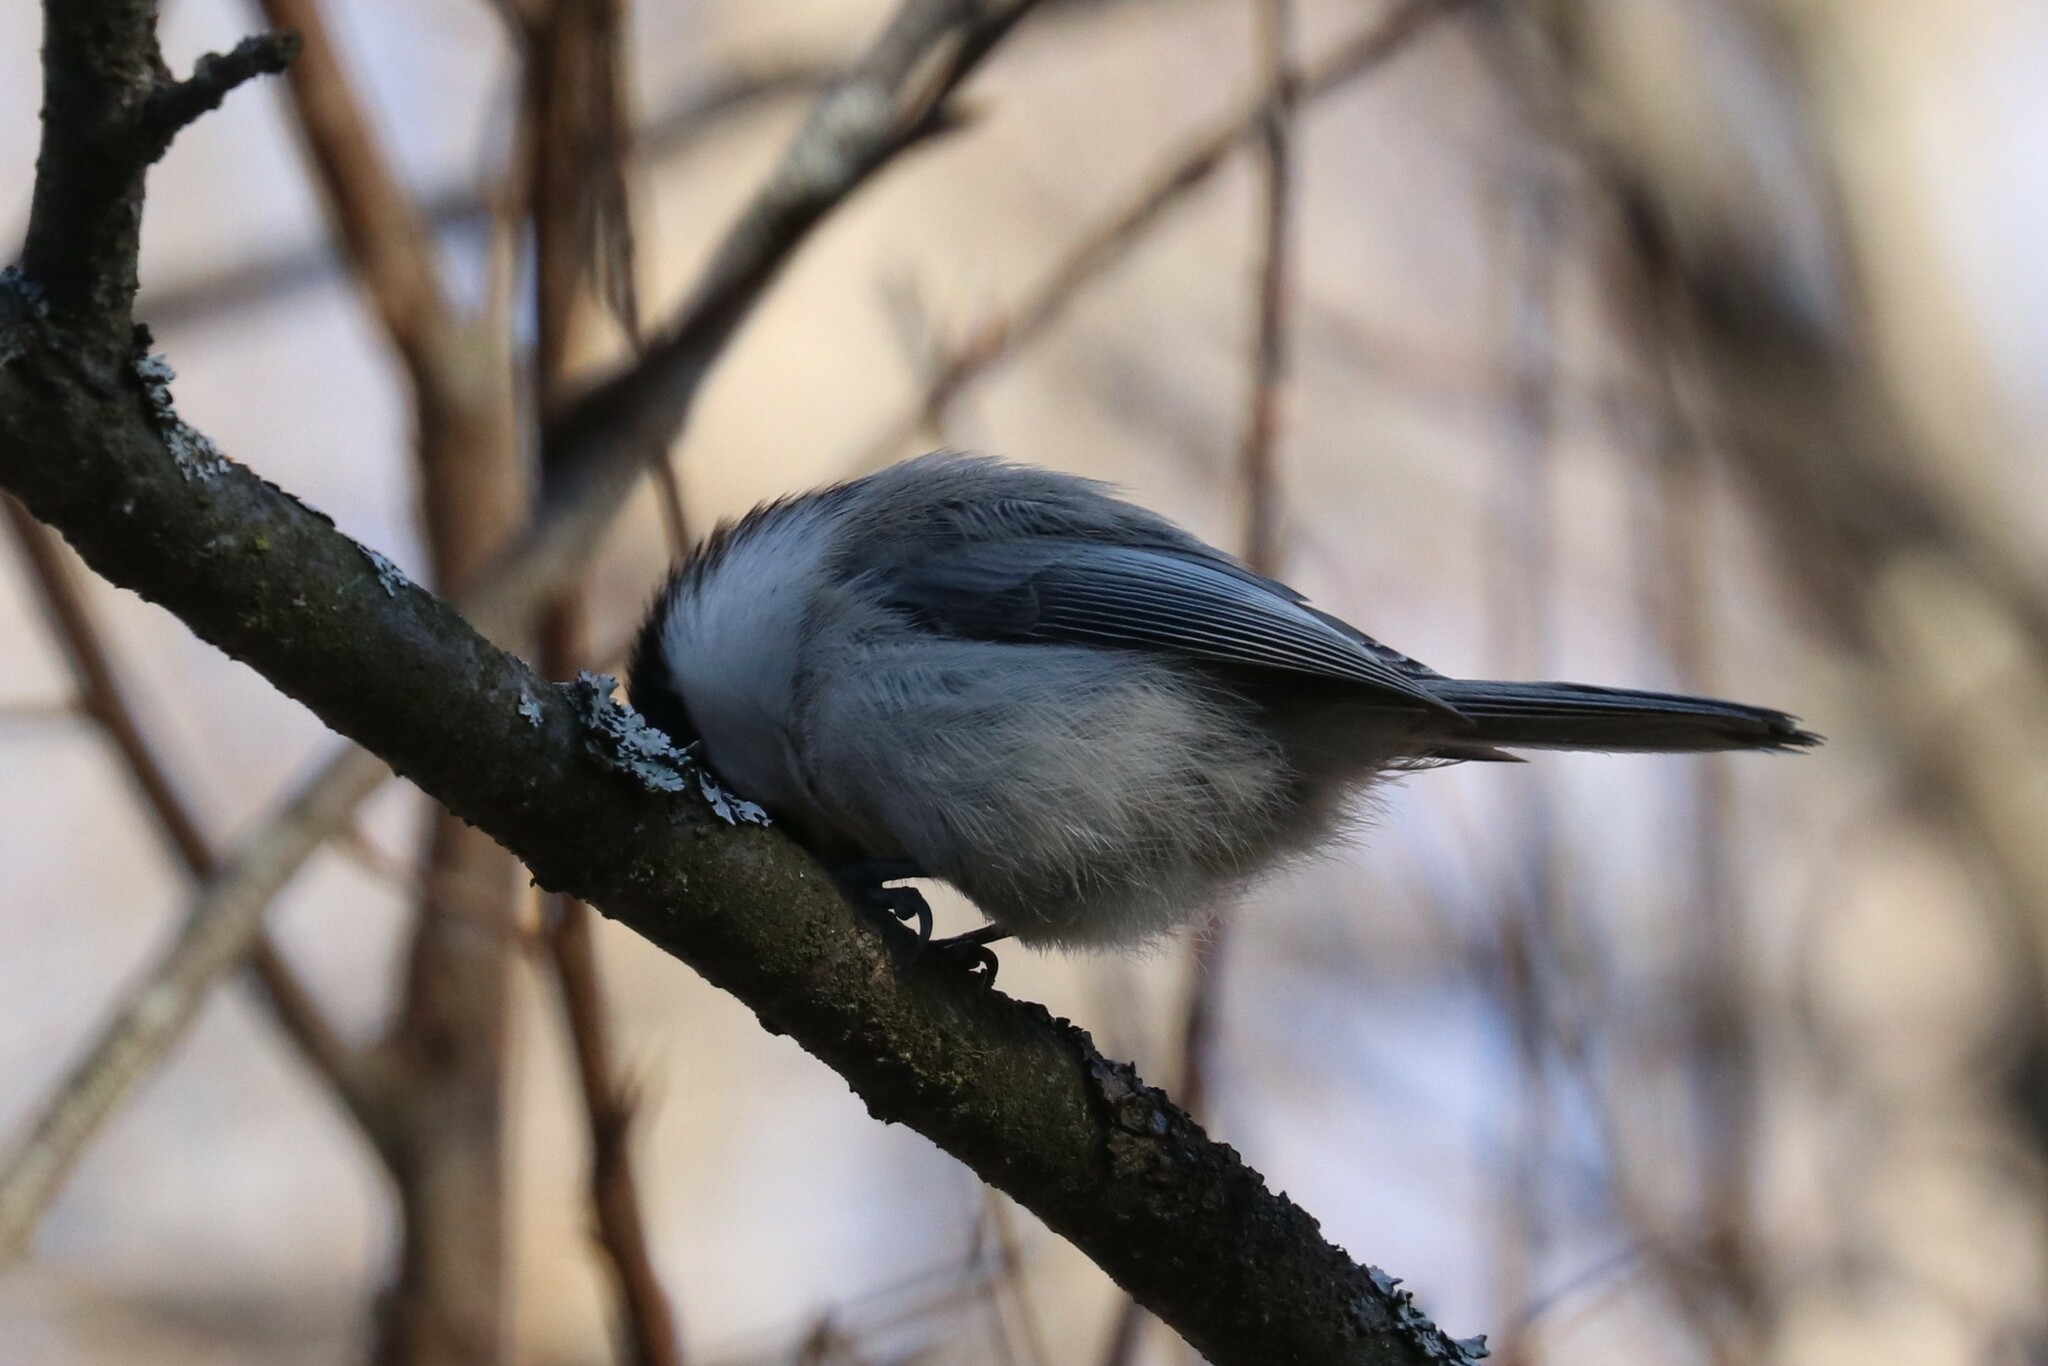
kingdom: Animalia
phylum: Chordata
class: Aves
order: Passeriformes
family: Paridae
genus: Poecile
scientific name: Poecile montanus
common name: Willow tit
